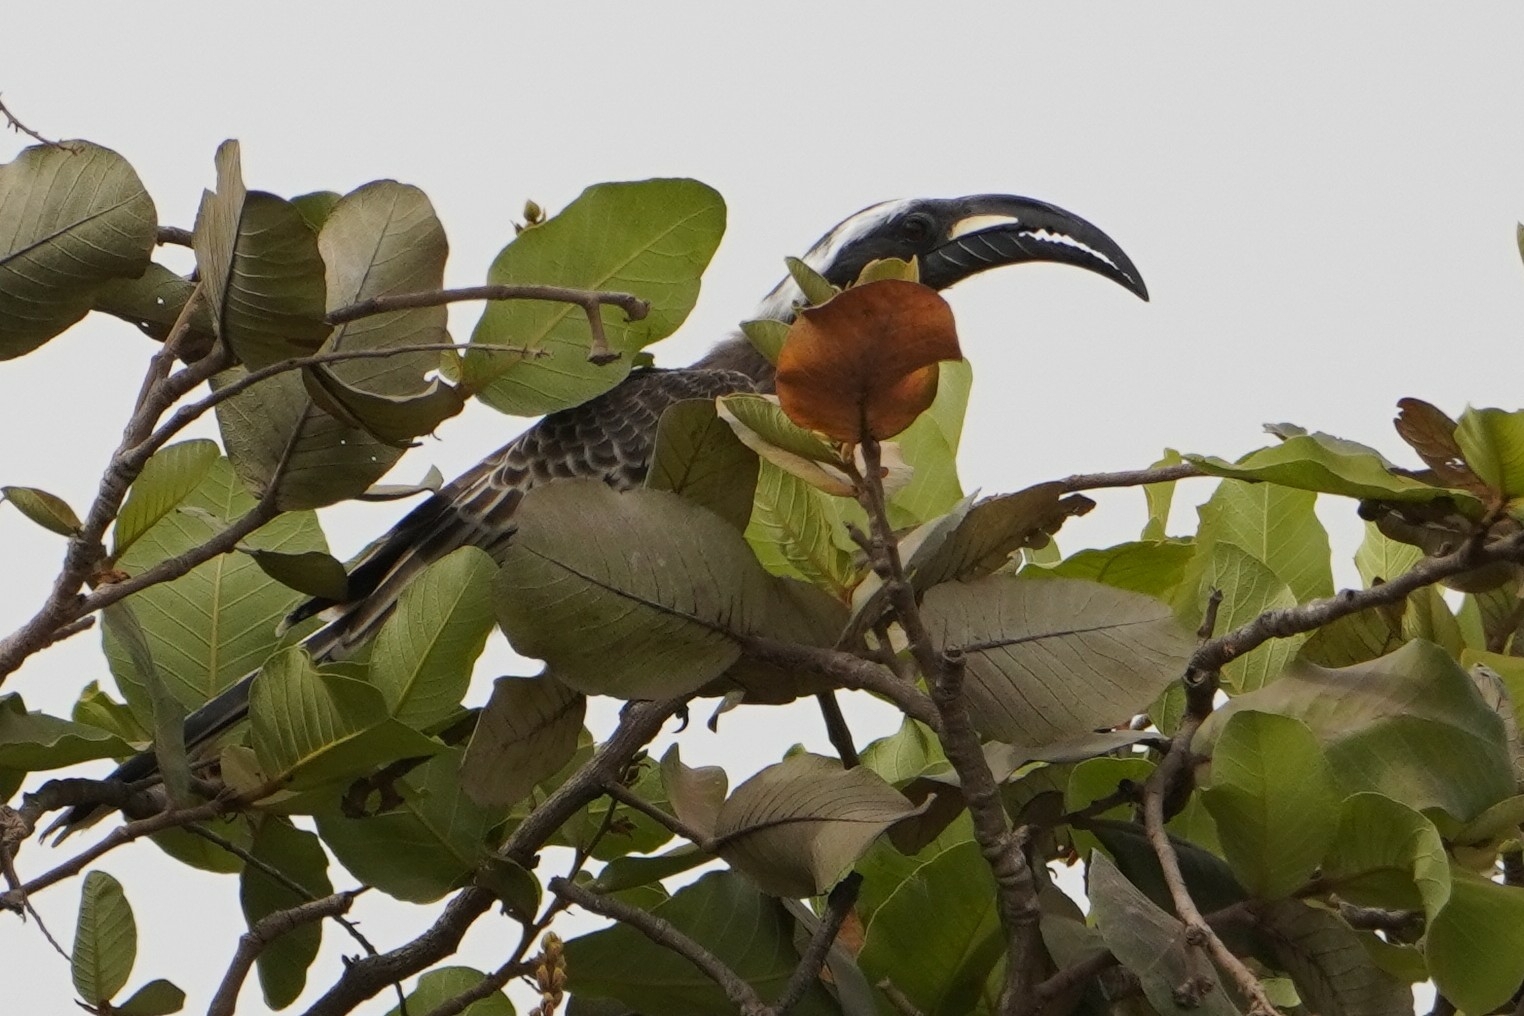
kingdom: Animalia
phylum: Chordata
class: Aves
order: Bucerotiformes
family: Bucerotidae
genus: Lophoceros
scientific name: Lophoceros nasutus
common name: African grey hornbill
